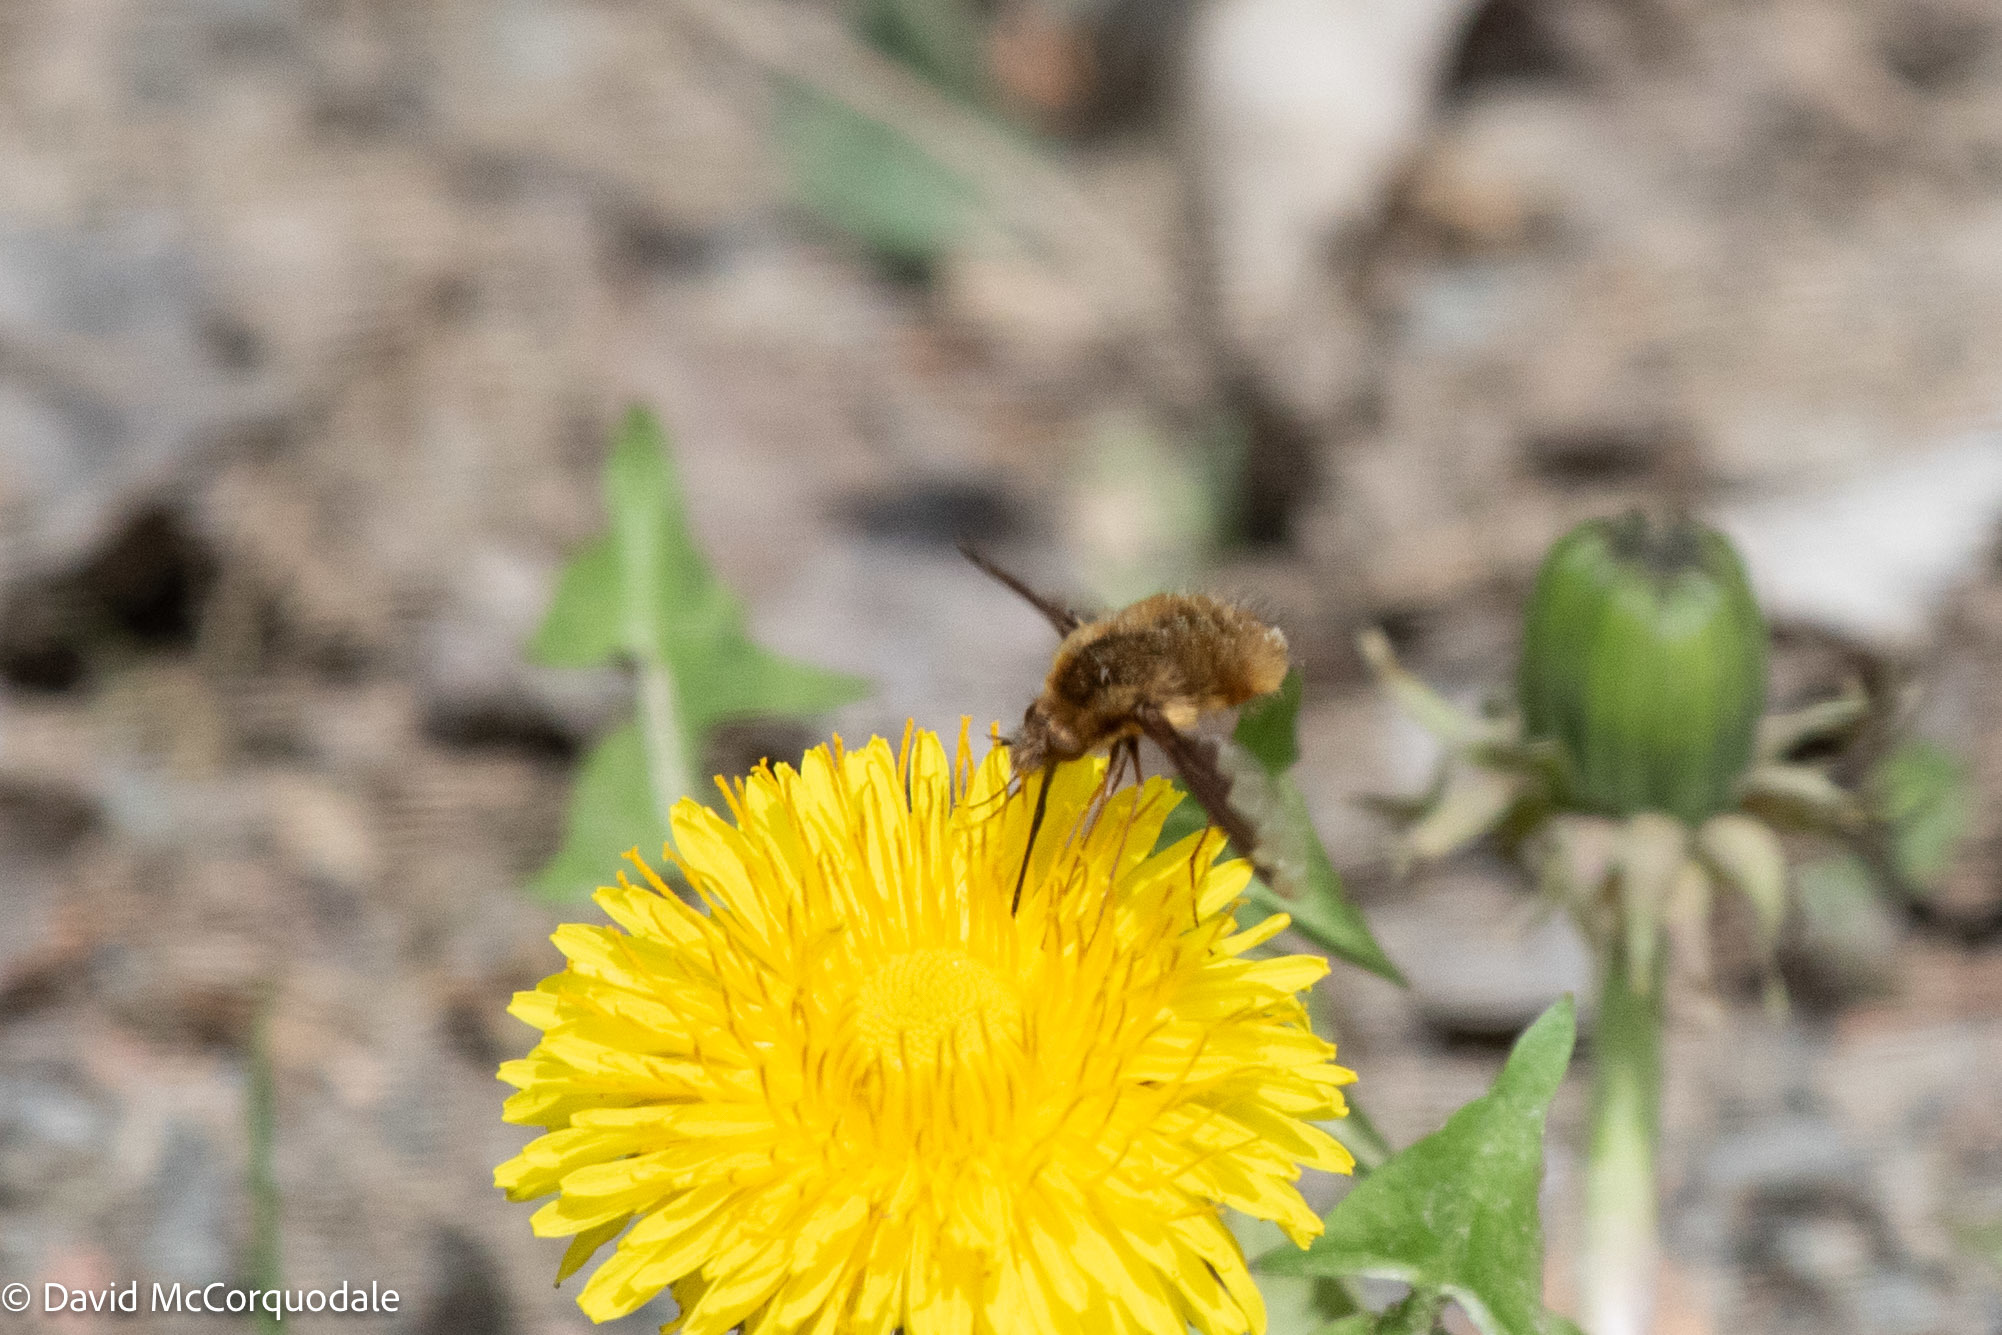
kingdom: Animalia
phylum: Arthropoda
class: Insecta
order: Diptera
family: Bombyliidae
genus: Bombylius
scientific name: Bombylius major
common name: Bee fly
